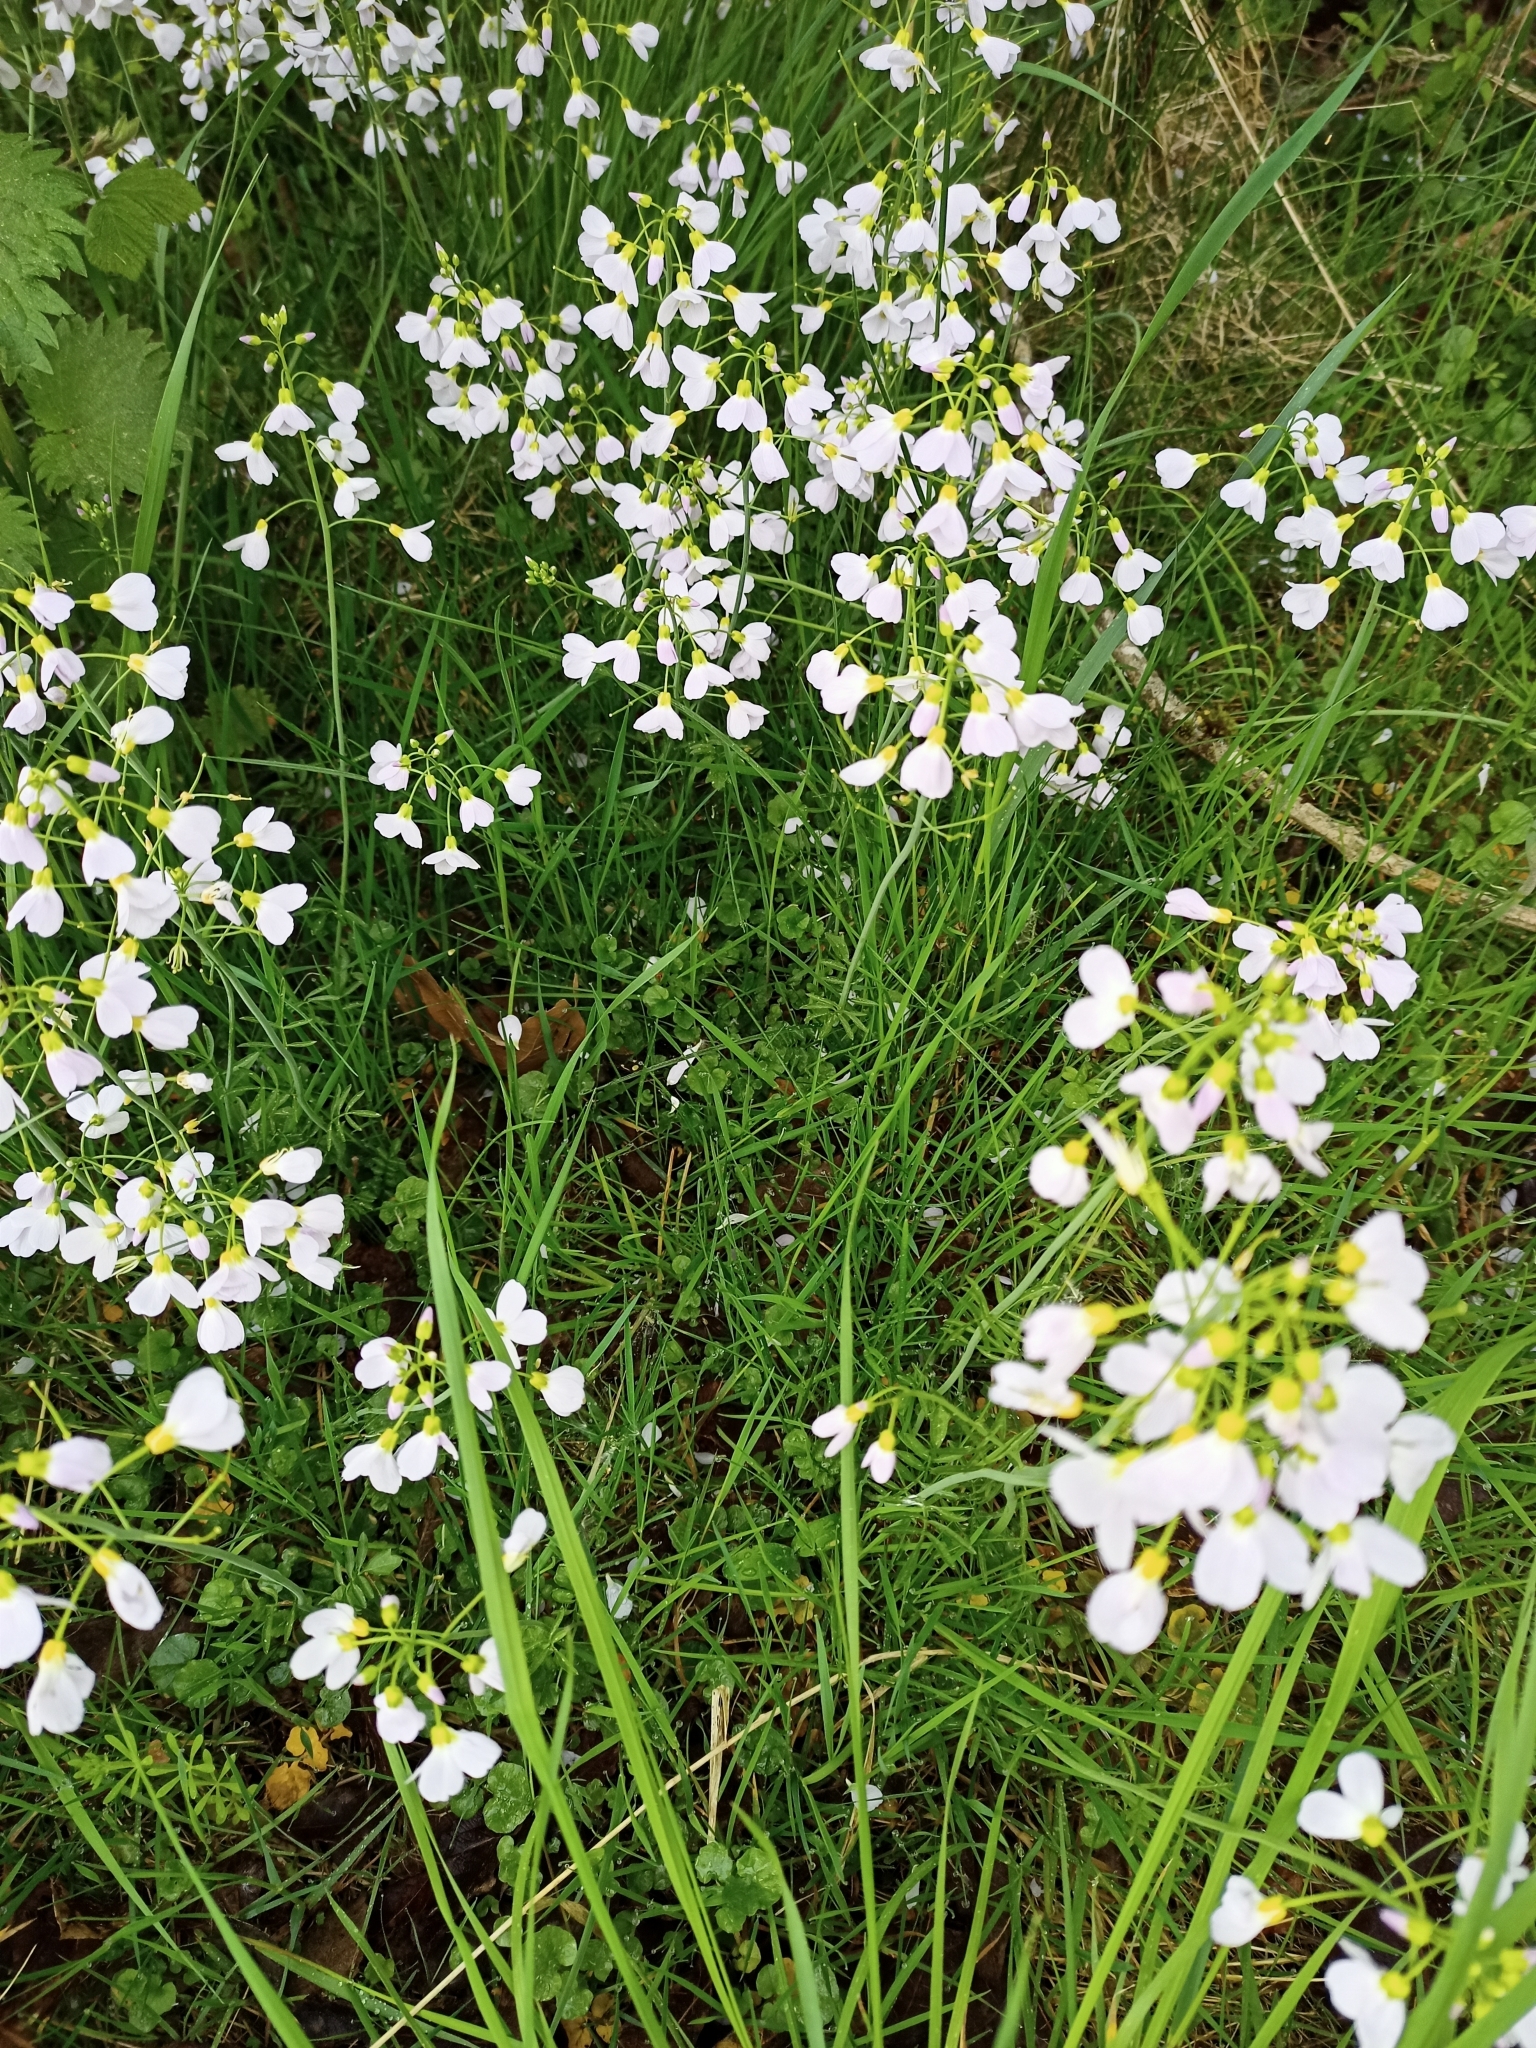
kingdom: Plantae
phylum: Tracheophyta
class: Magnoliopsida
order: Brassicales
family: Brassicaceae
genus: Cardamine
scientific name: Cardamine pratensis
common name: Cuckoo flower
